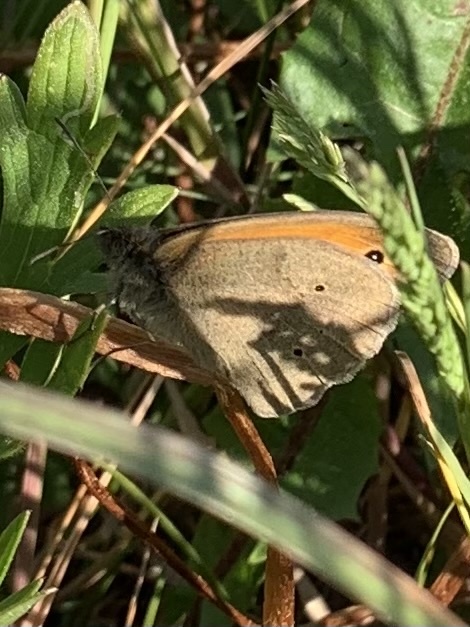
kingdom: Animalia
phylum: Arthropoda
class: Insecta
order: Lepidoptera
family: Nymphalidae
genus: Maniola
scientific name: Maniola jurtina
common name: Meadow brown
